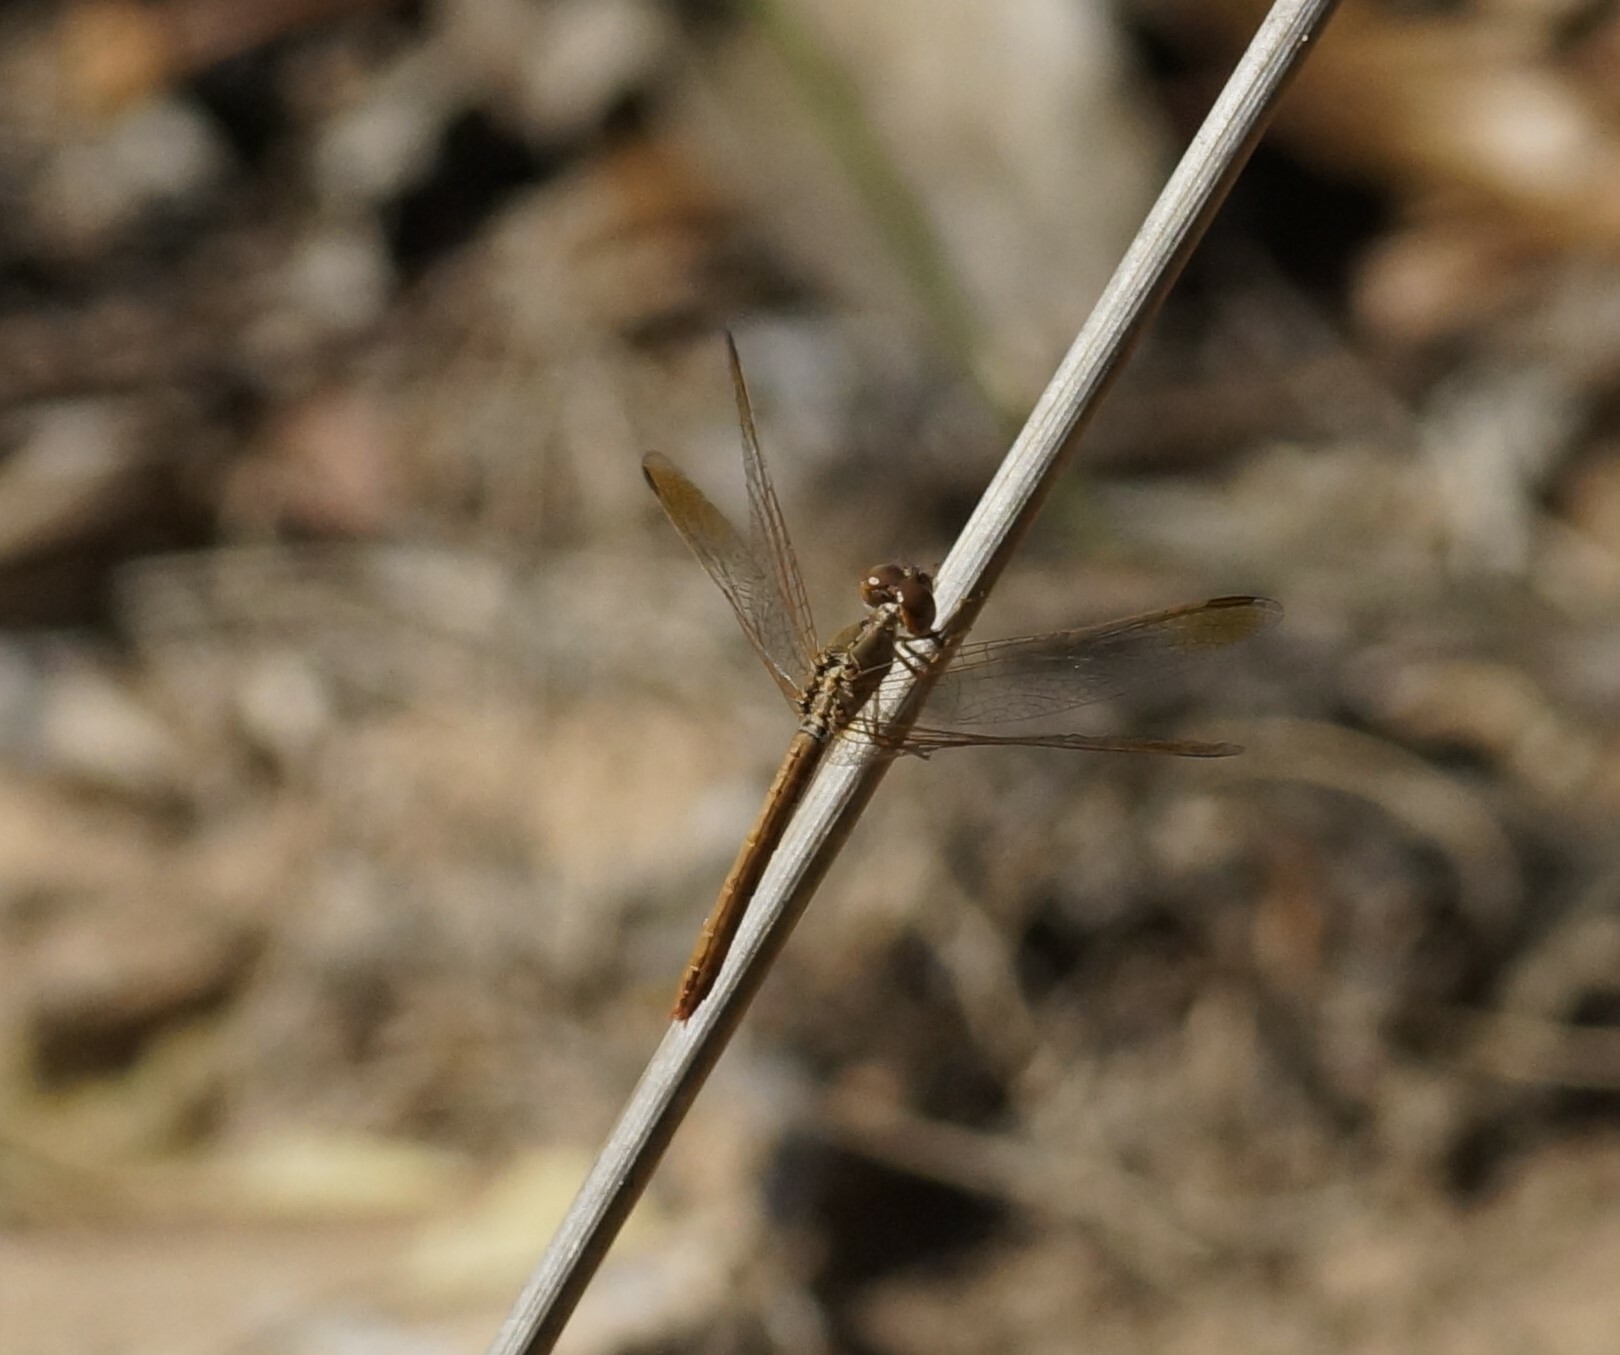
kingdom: Animalia
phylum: Arthropoda
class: Insecta
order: Odonata
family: Libellulidae
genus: Diplacodes
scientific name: Diplacodes haematodes
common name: Scarlet percher
